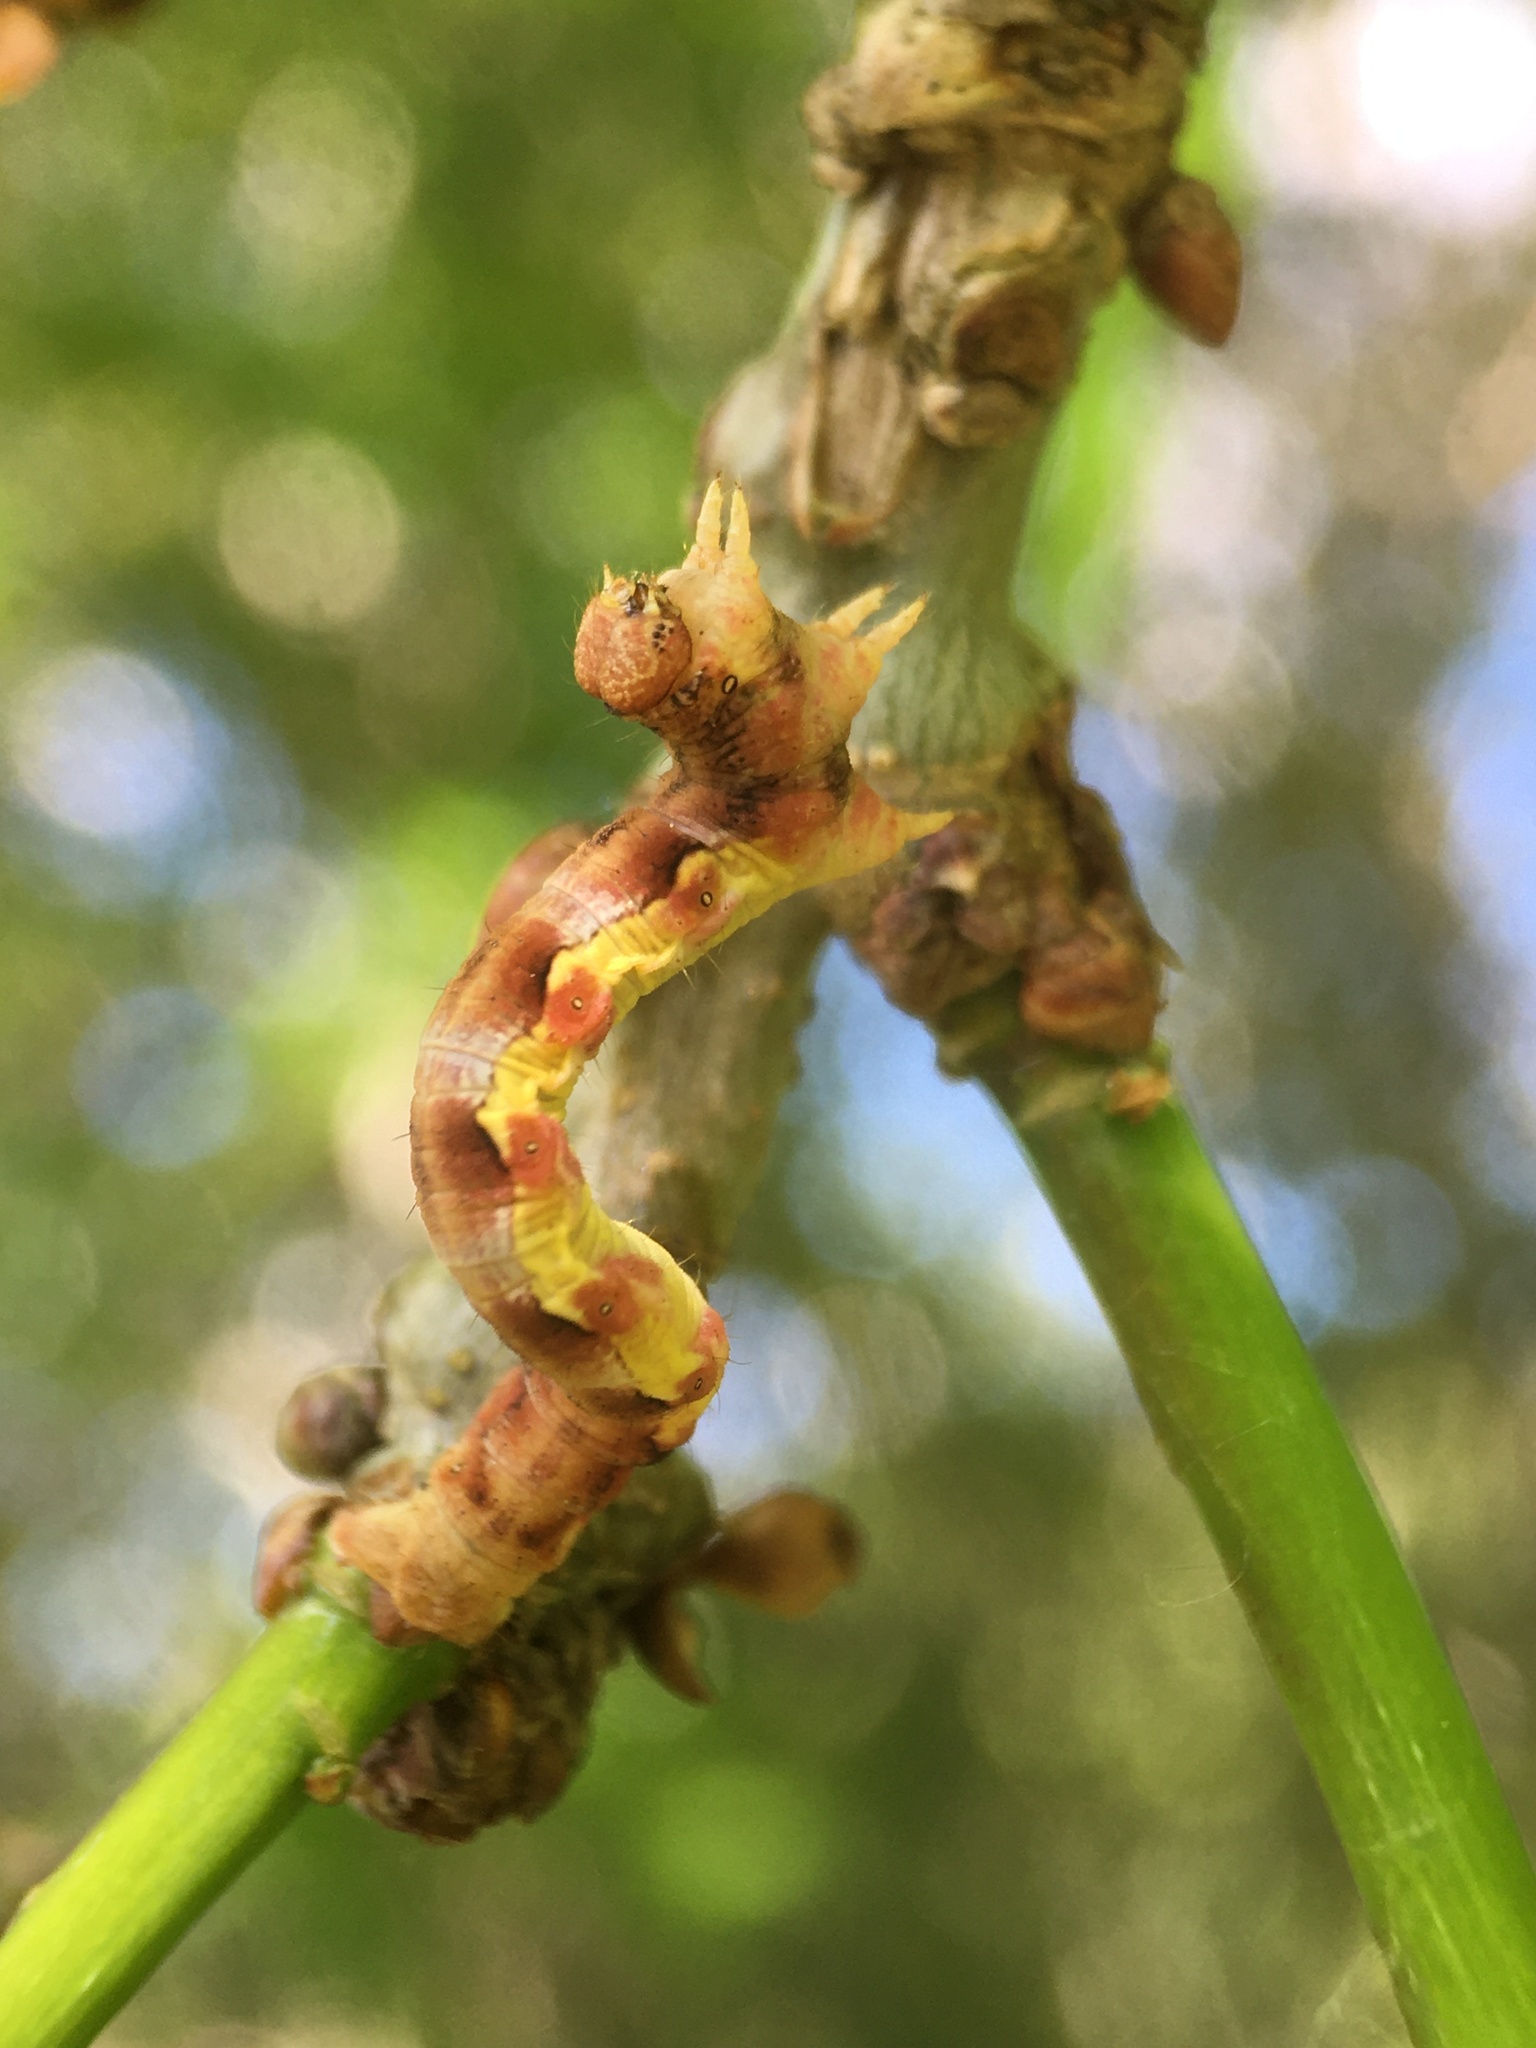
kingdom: Animalia
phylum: Arthropoda
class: Insecta
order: Lepidoptera
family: Geometridae
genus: Erannis
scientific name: Erannis defoliaria
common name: Mottled umber
